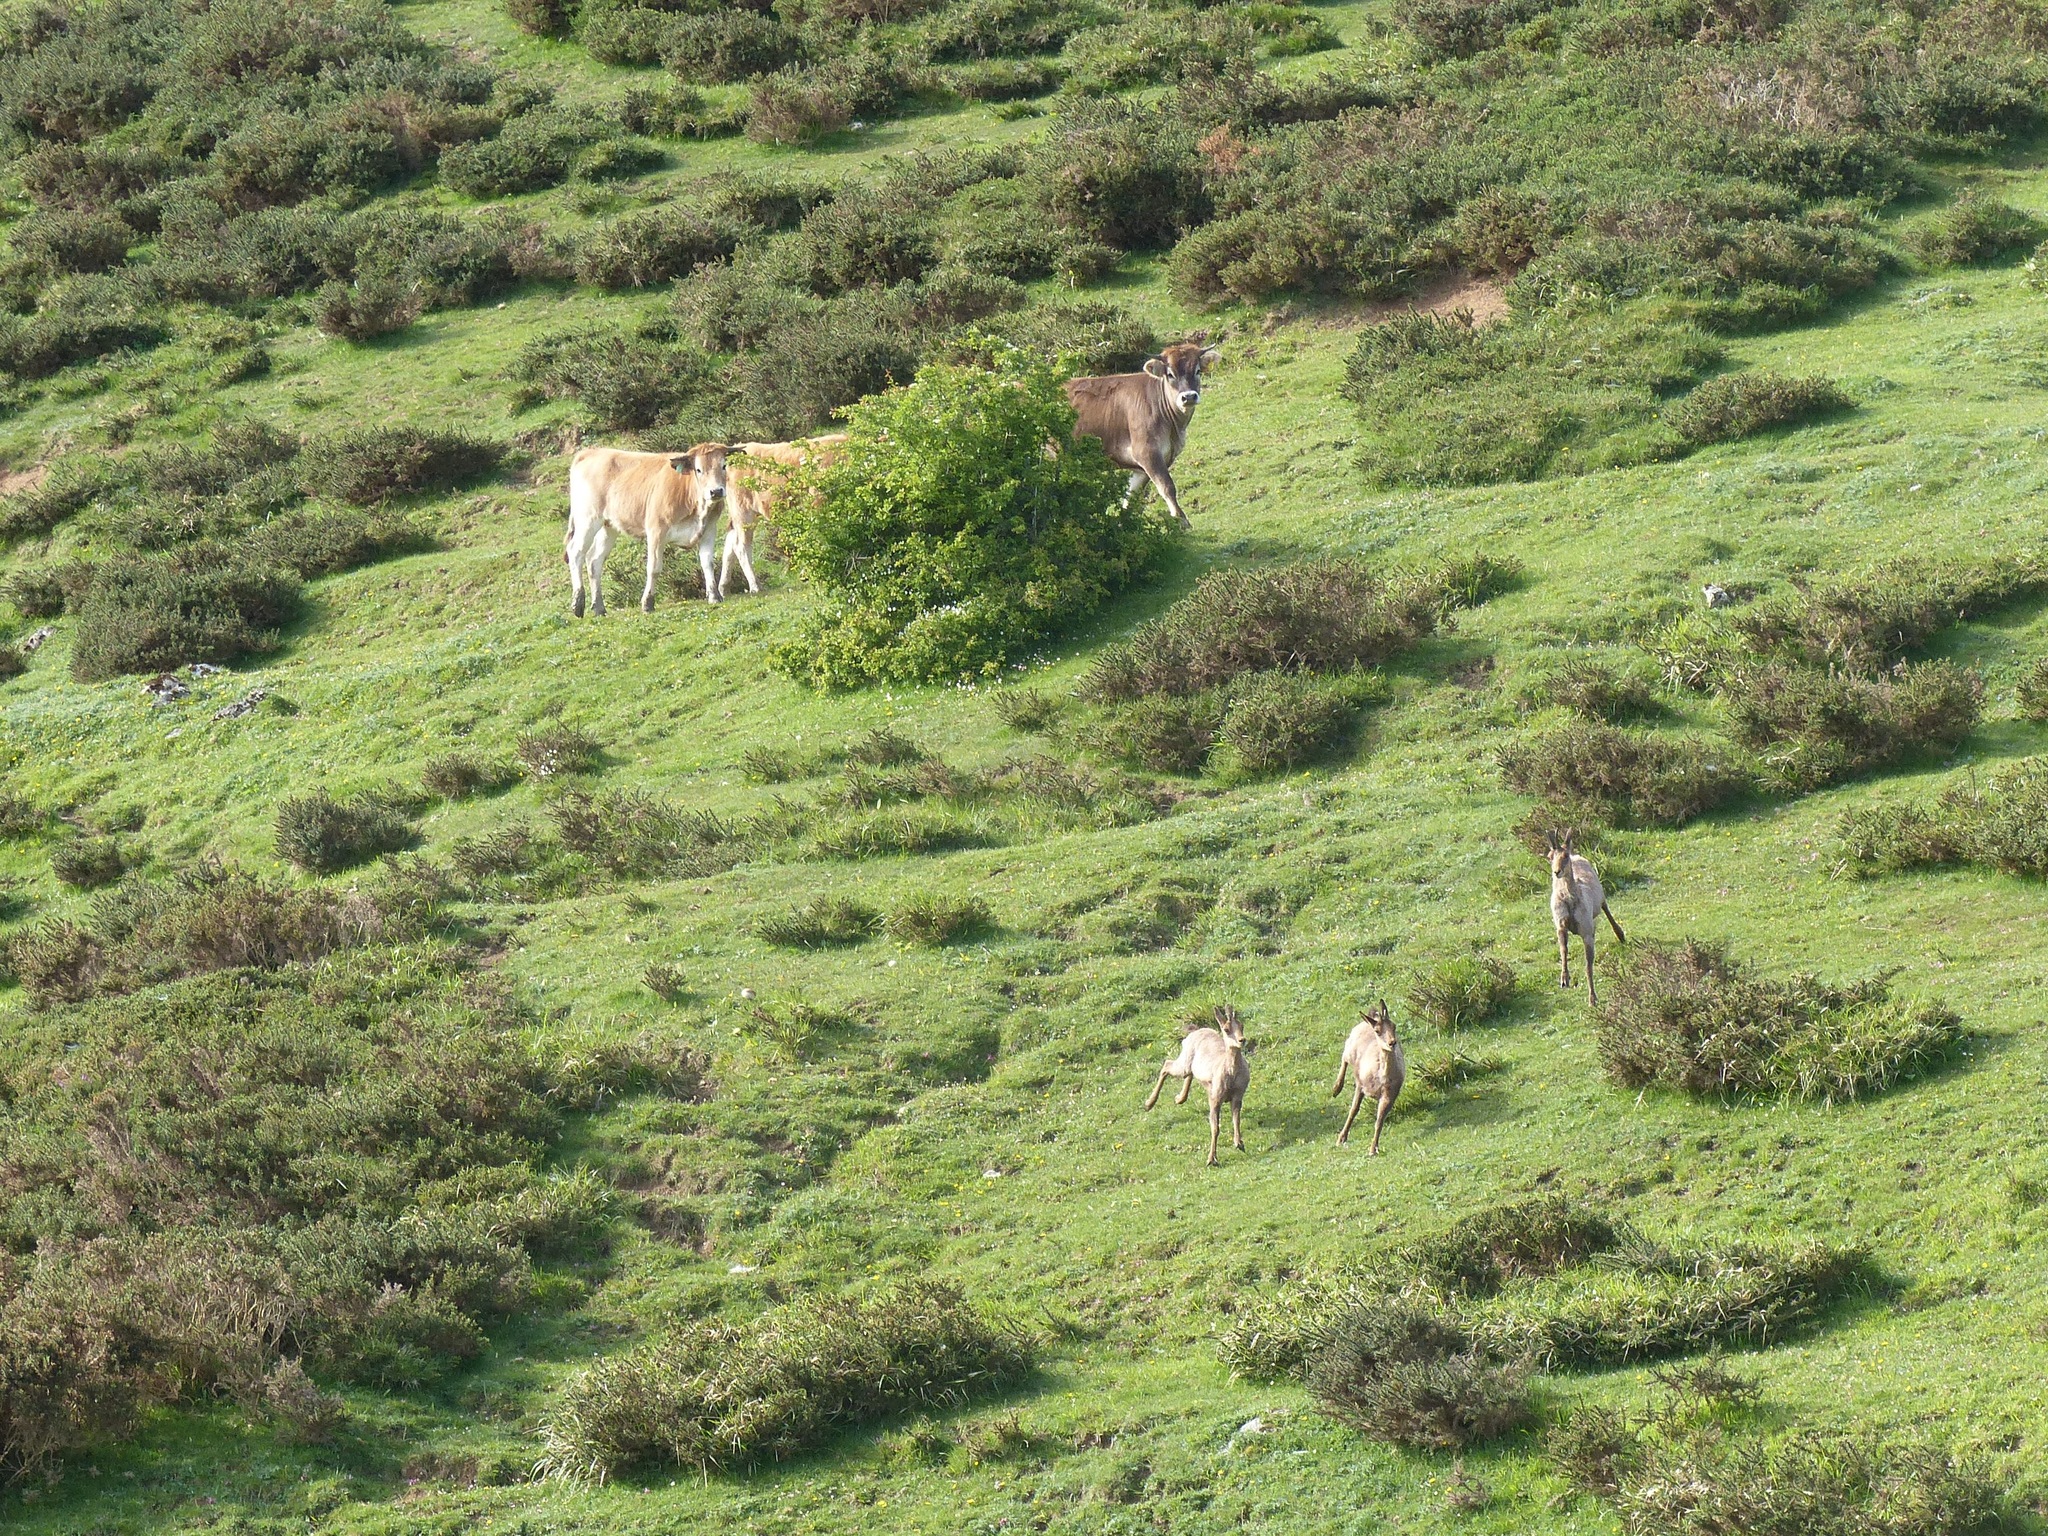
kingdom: Animalia
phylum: Chordata
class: Mammalia
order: Artiodactyla
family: Bovidae
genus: Rupicapra
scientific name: Rupicapra pyrenaica
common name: Pyrenean chamois
